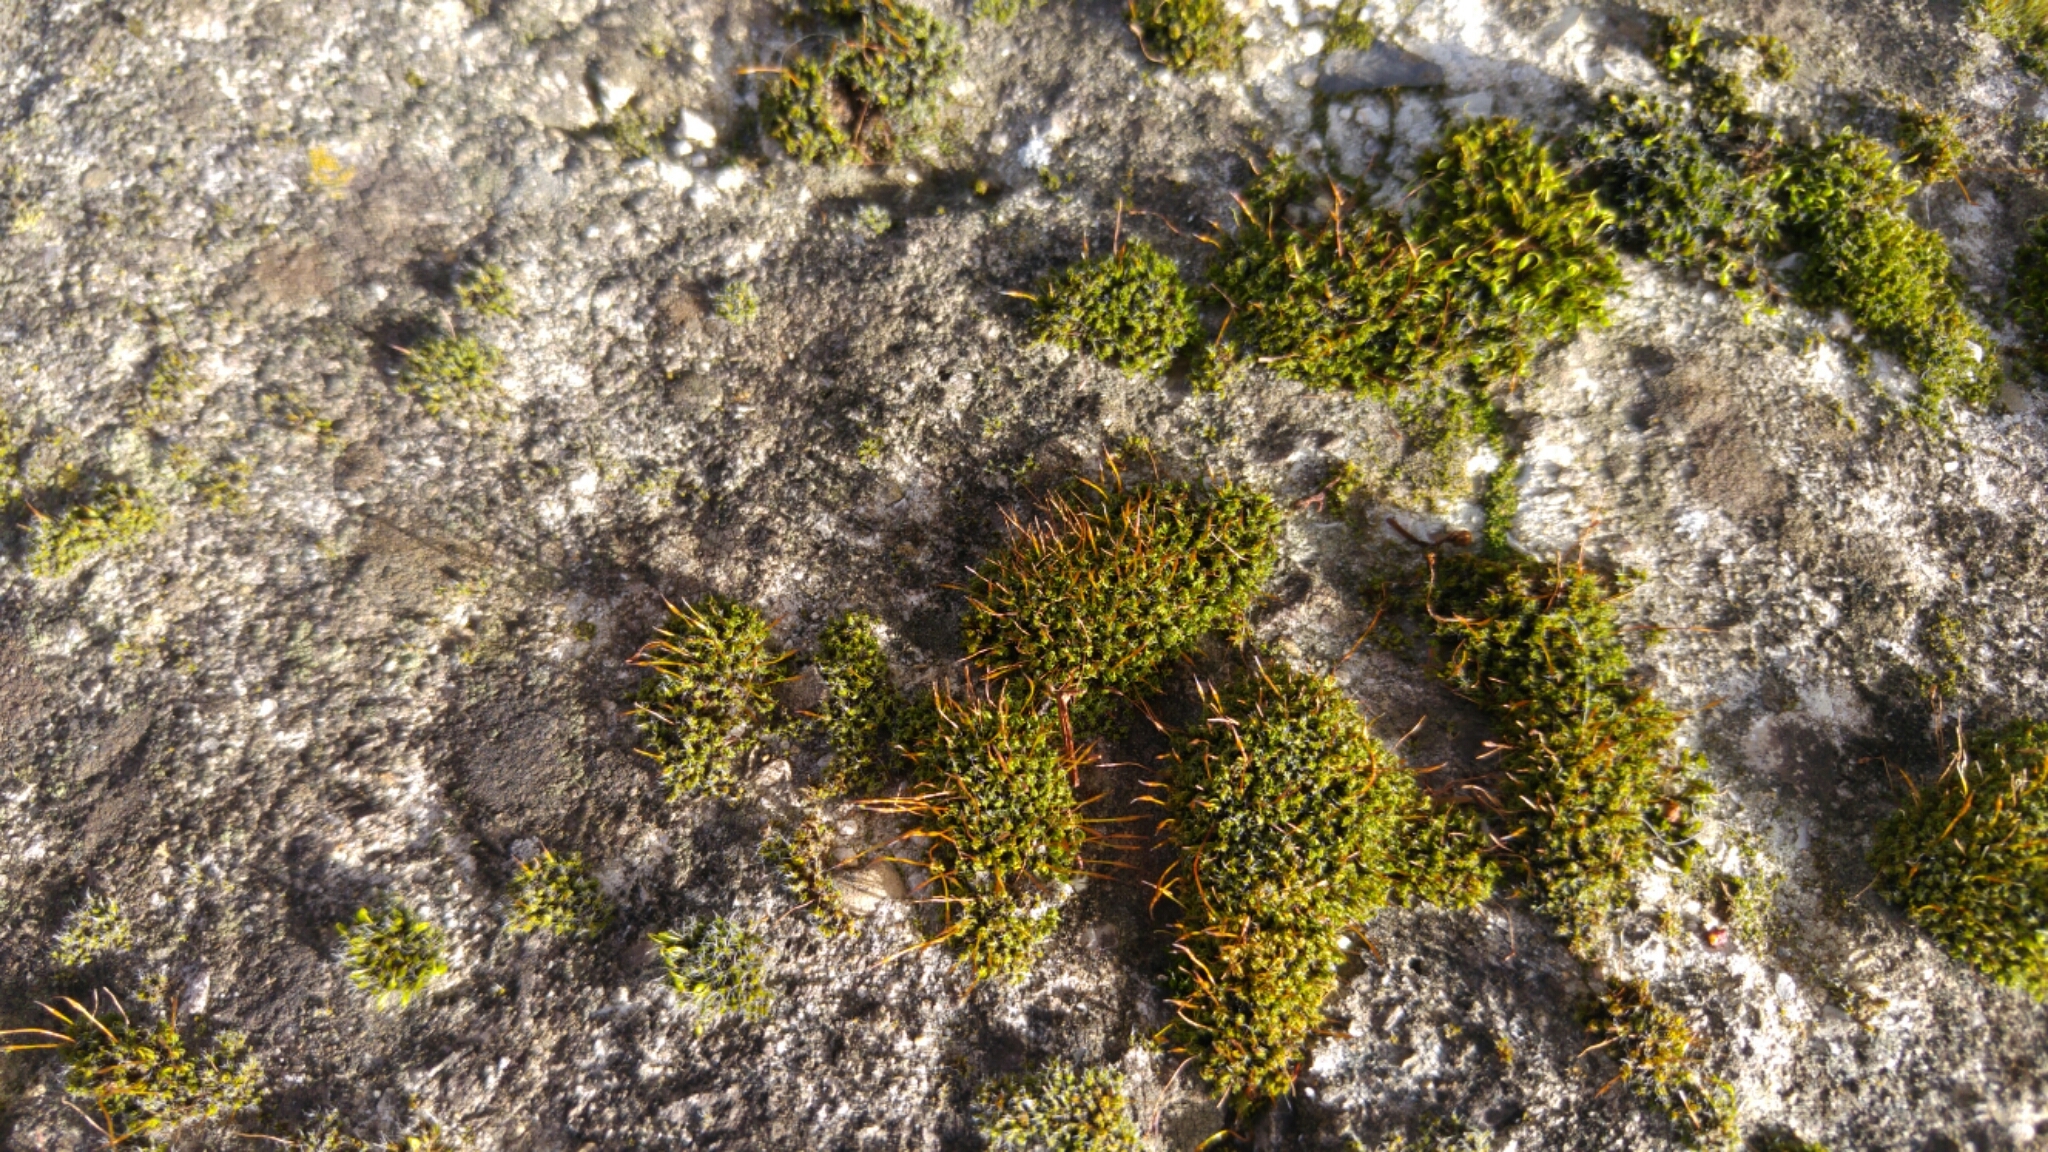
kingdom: Plantae
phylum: Bryophyta
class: Bryopsida
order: Pottiales
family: Pottiaceae
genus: Tortula
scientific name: Tortula muralis
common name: Wall screw-moss
